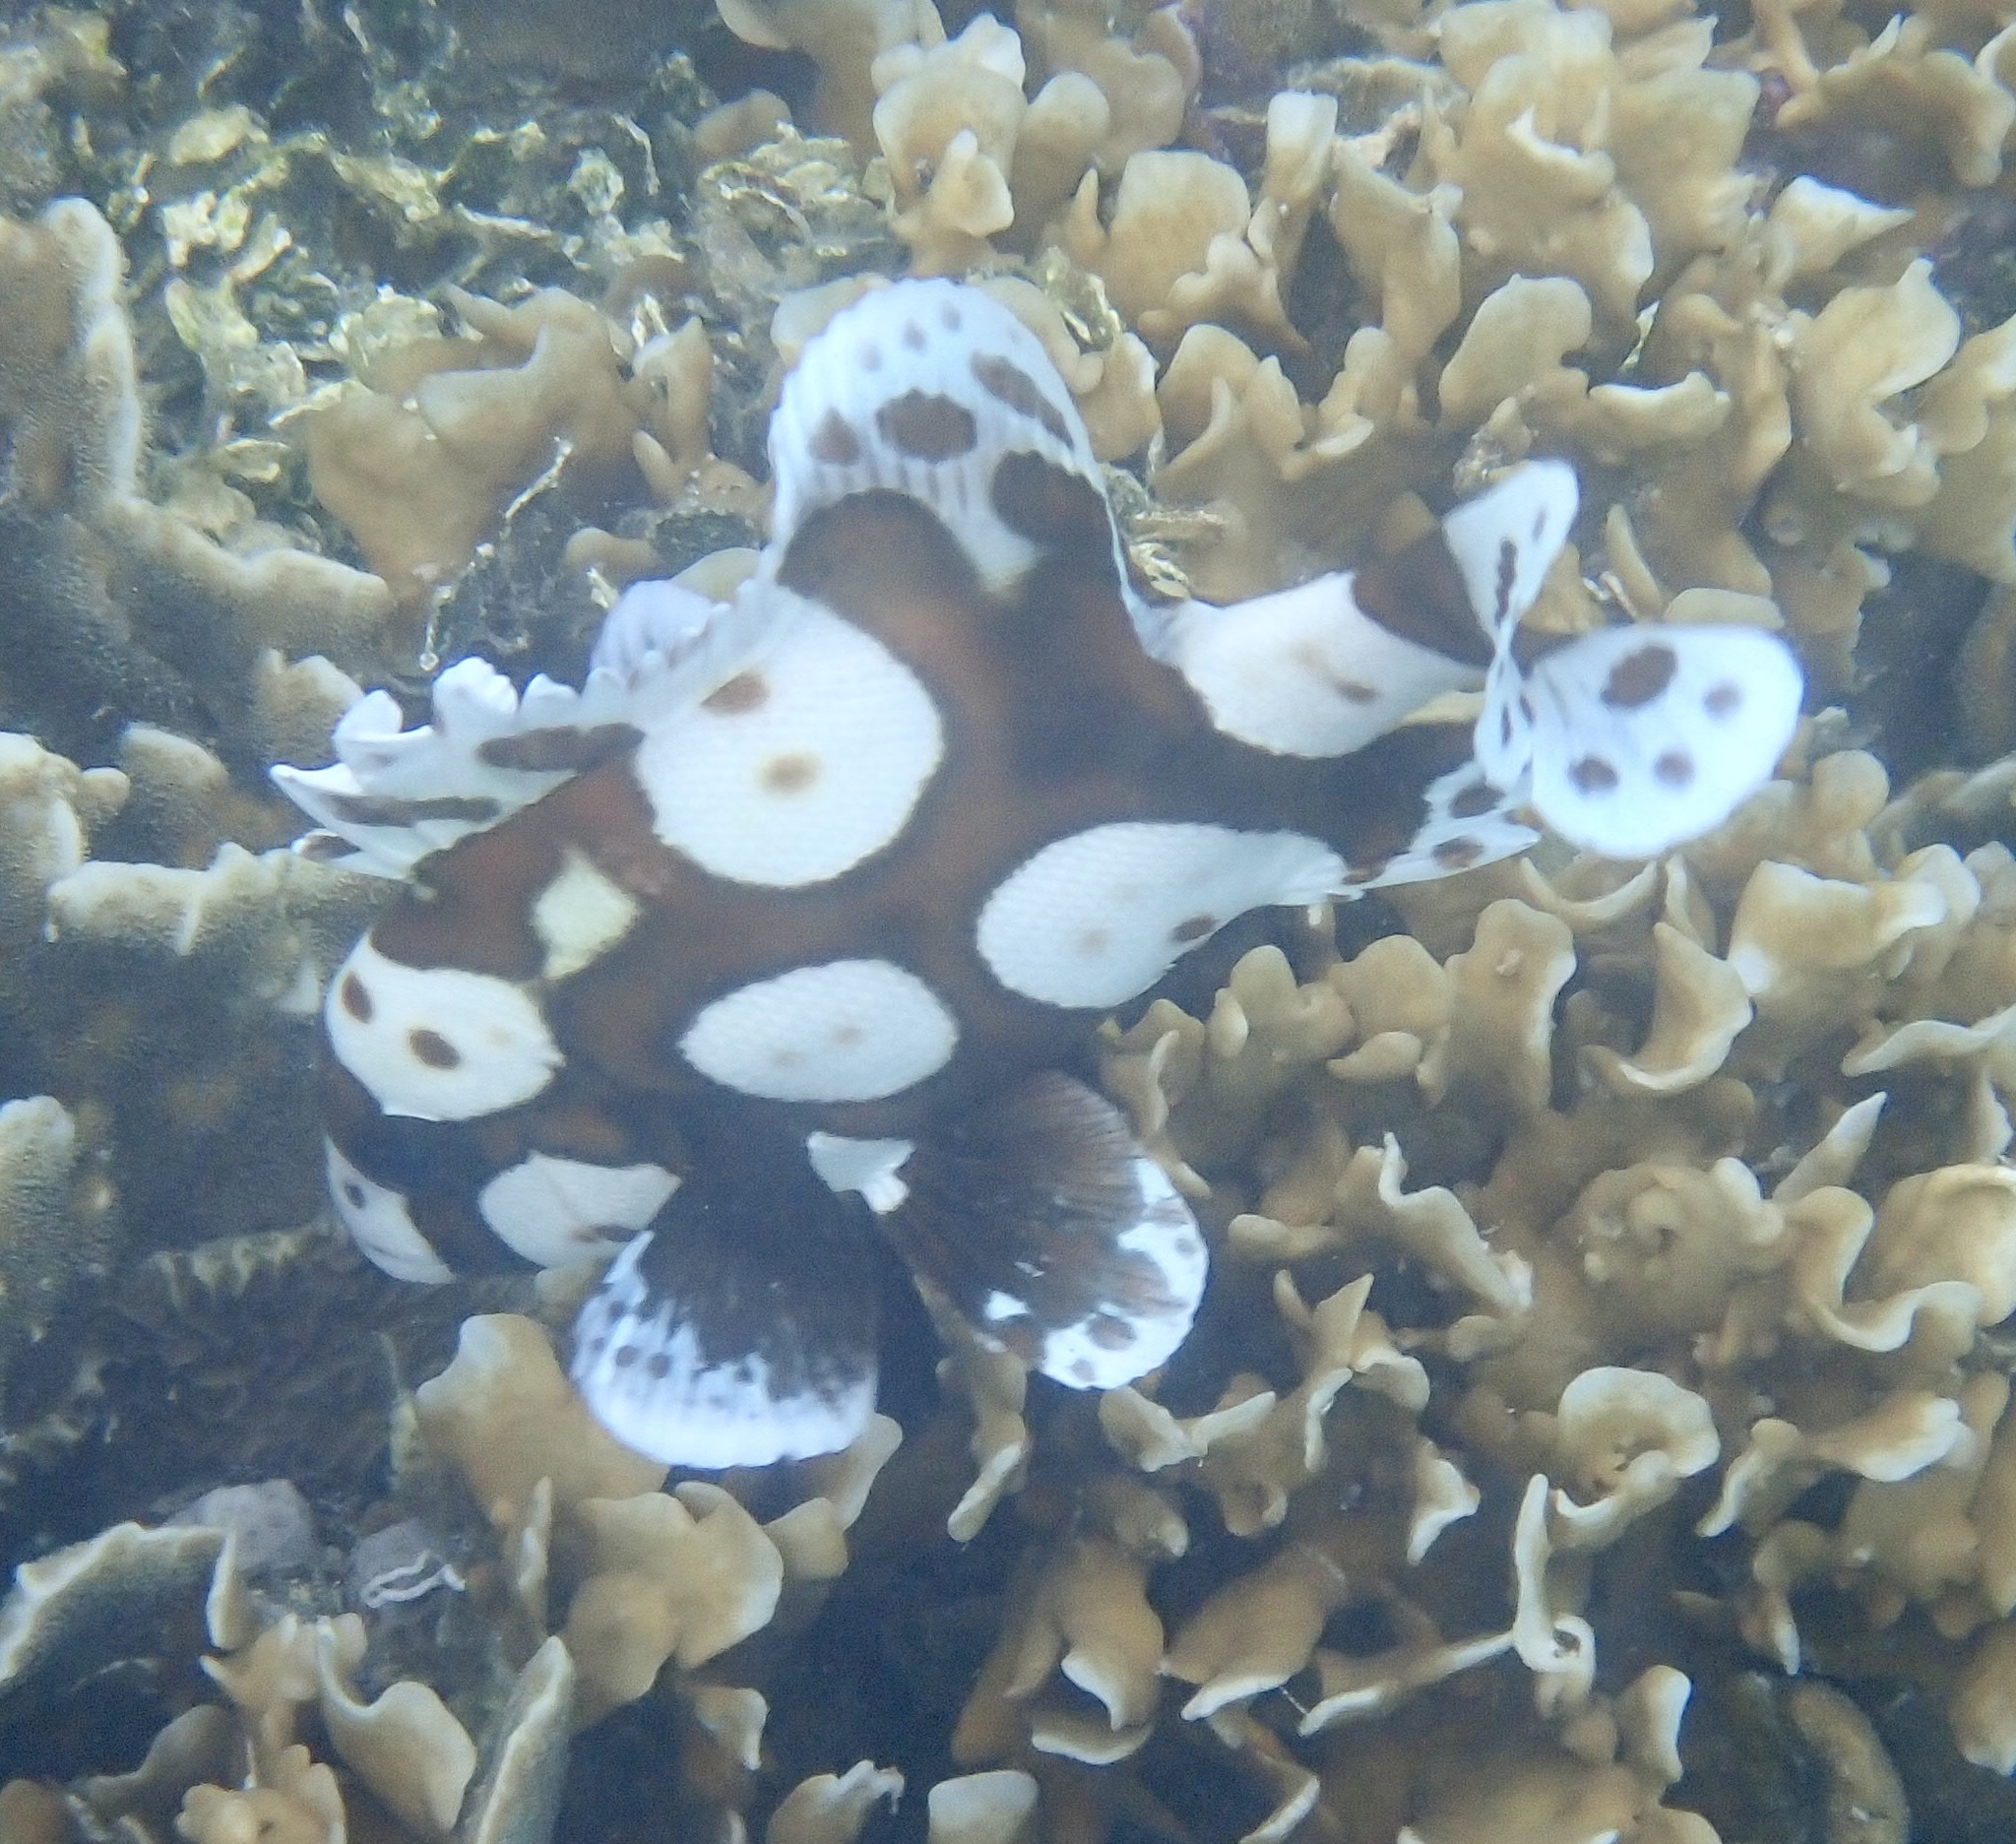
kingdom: Animalia
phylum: Chordata
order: Perciformes
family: Haemulidae
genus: Plectorhinchus
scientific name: Plectorhinchus chaetodonoides
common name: Harlequin sweetlips
